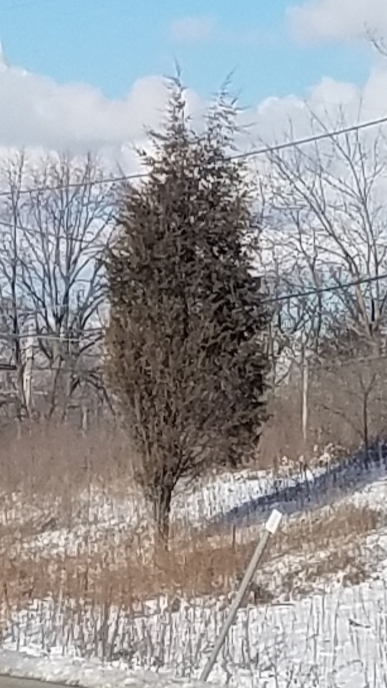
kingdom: Plantae
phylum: Tracheophyta
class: Pinopsida
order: Pinales
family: Cupressaceae
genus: Juniperus
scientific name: Juniperus virginiana
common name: Red juniper
